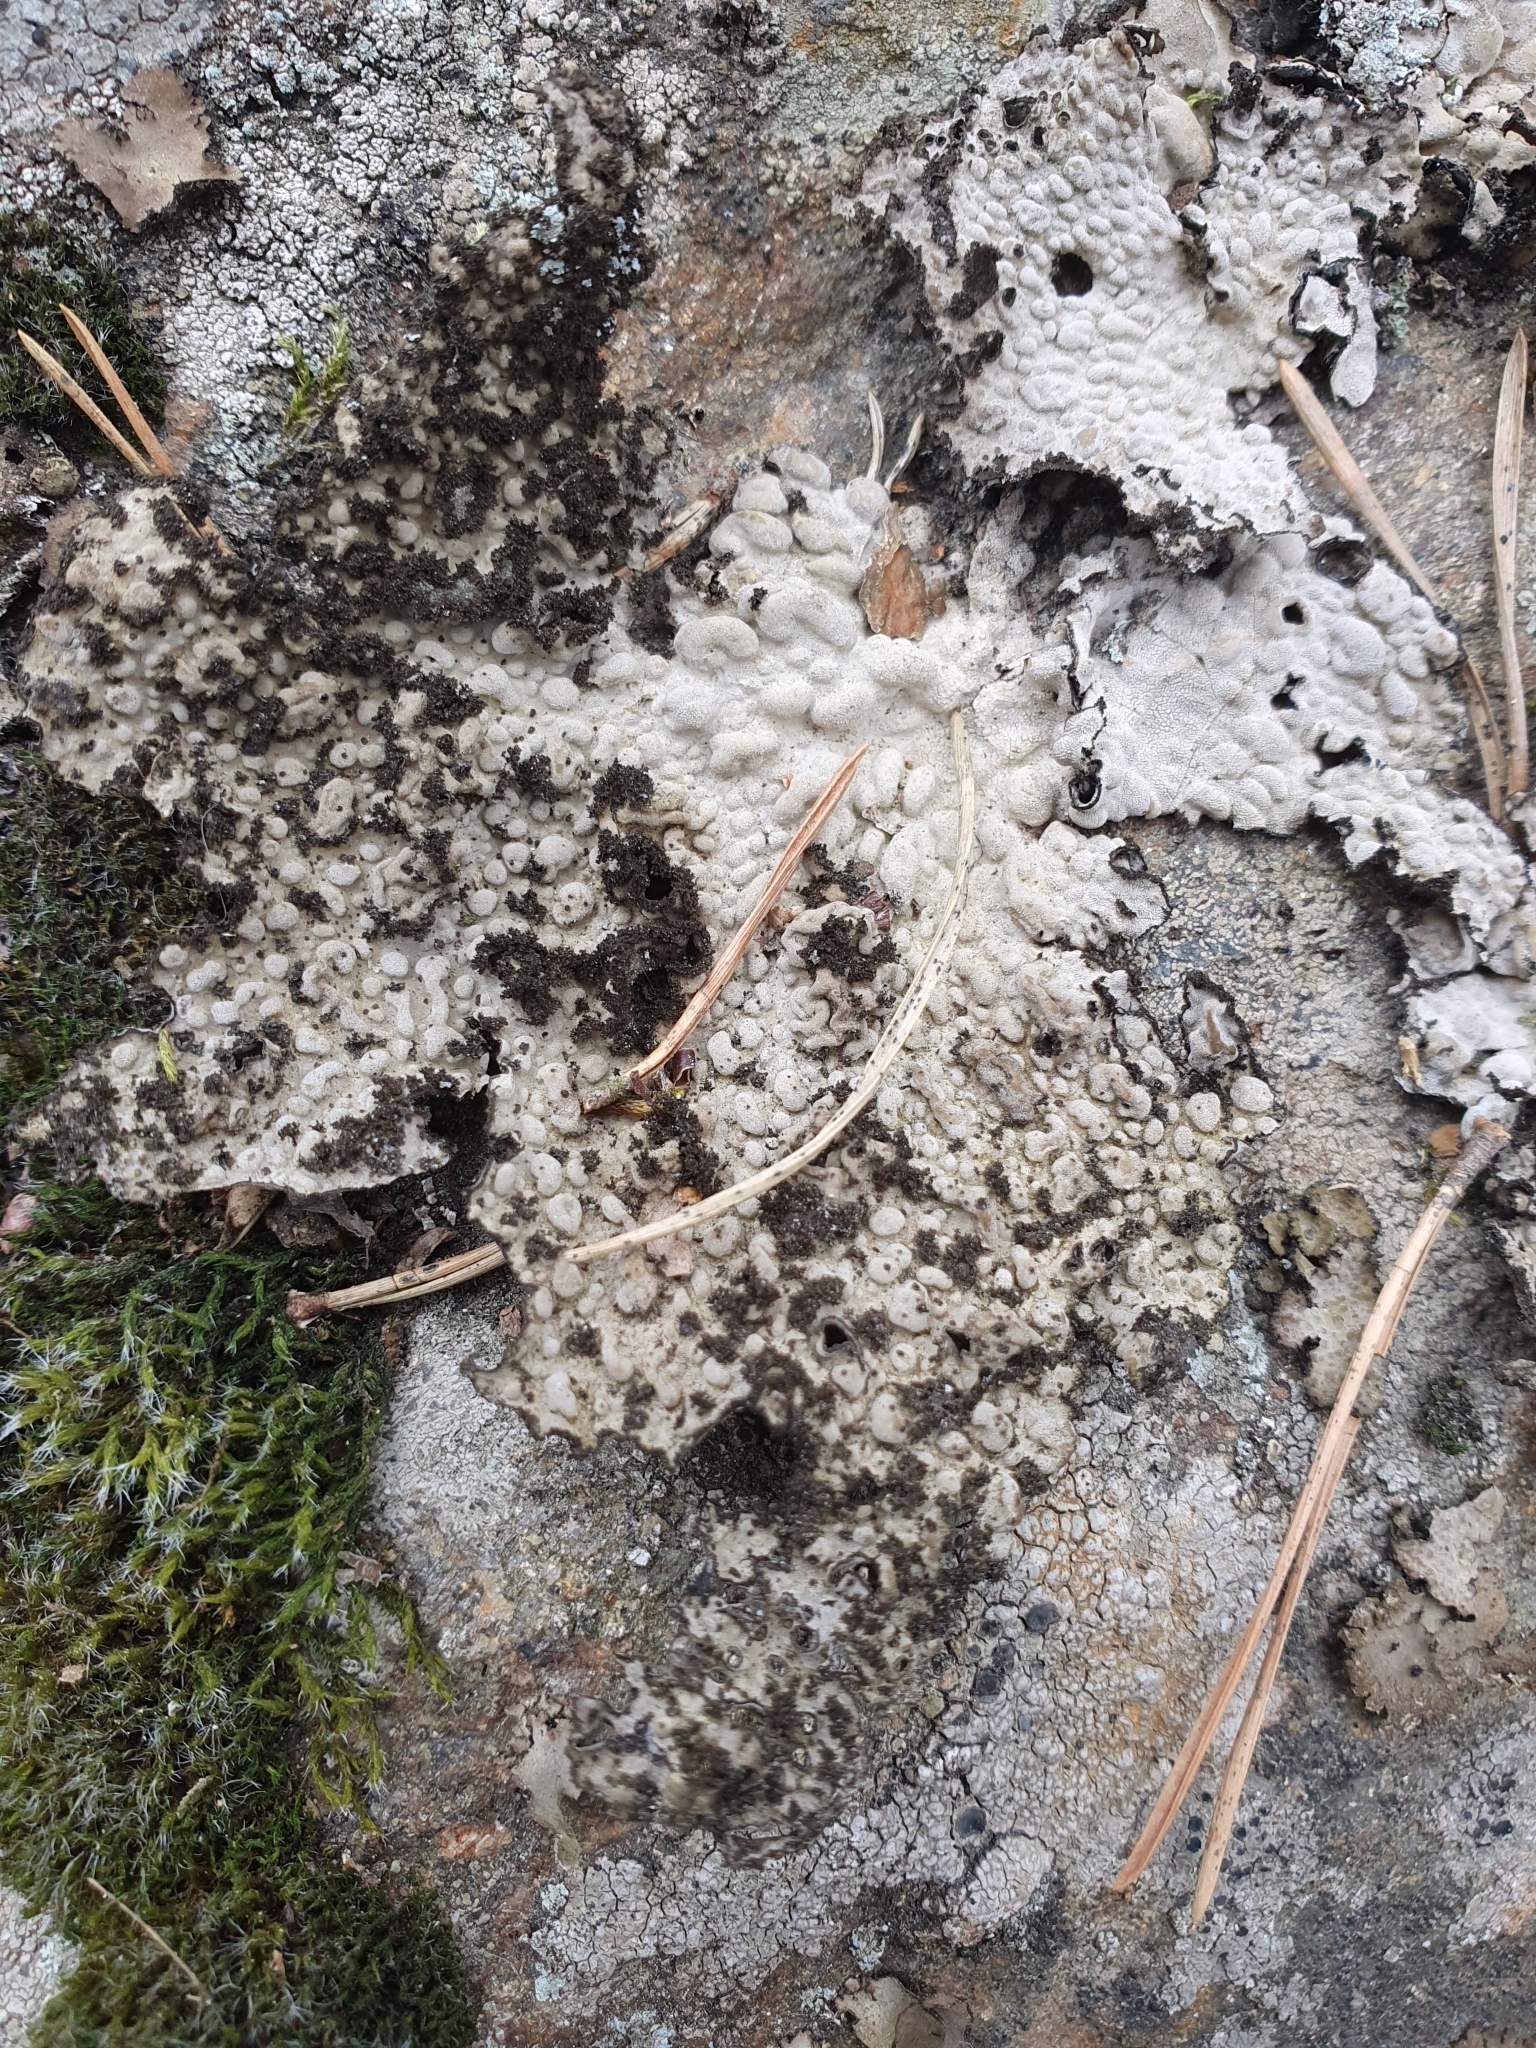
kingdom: Fungi
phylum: Ascomycota
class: Lecanoromycetes
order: Umbilicariales
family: Umbilicariaceae
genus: Lasallia
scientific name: Lasallia pustulata
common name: Blistered toadskin lichen
